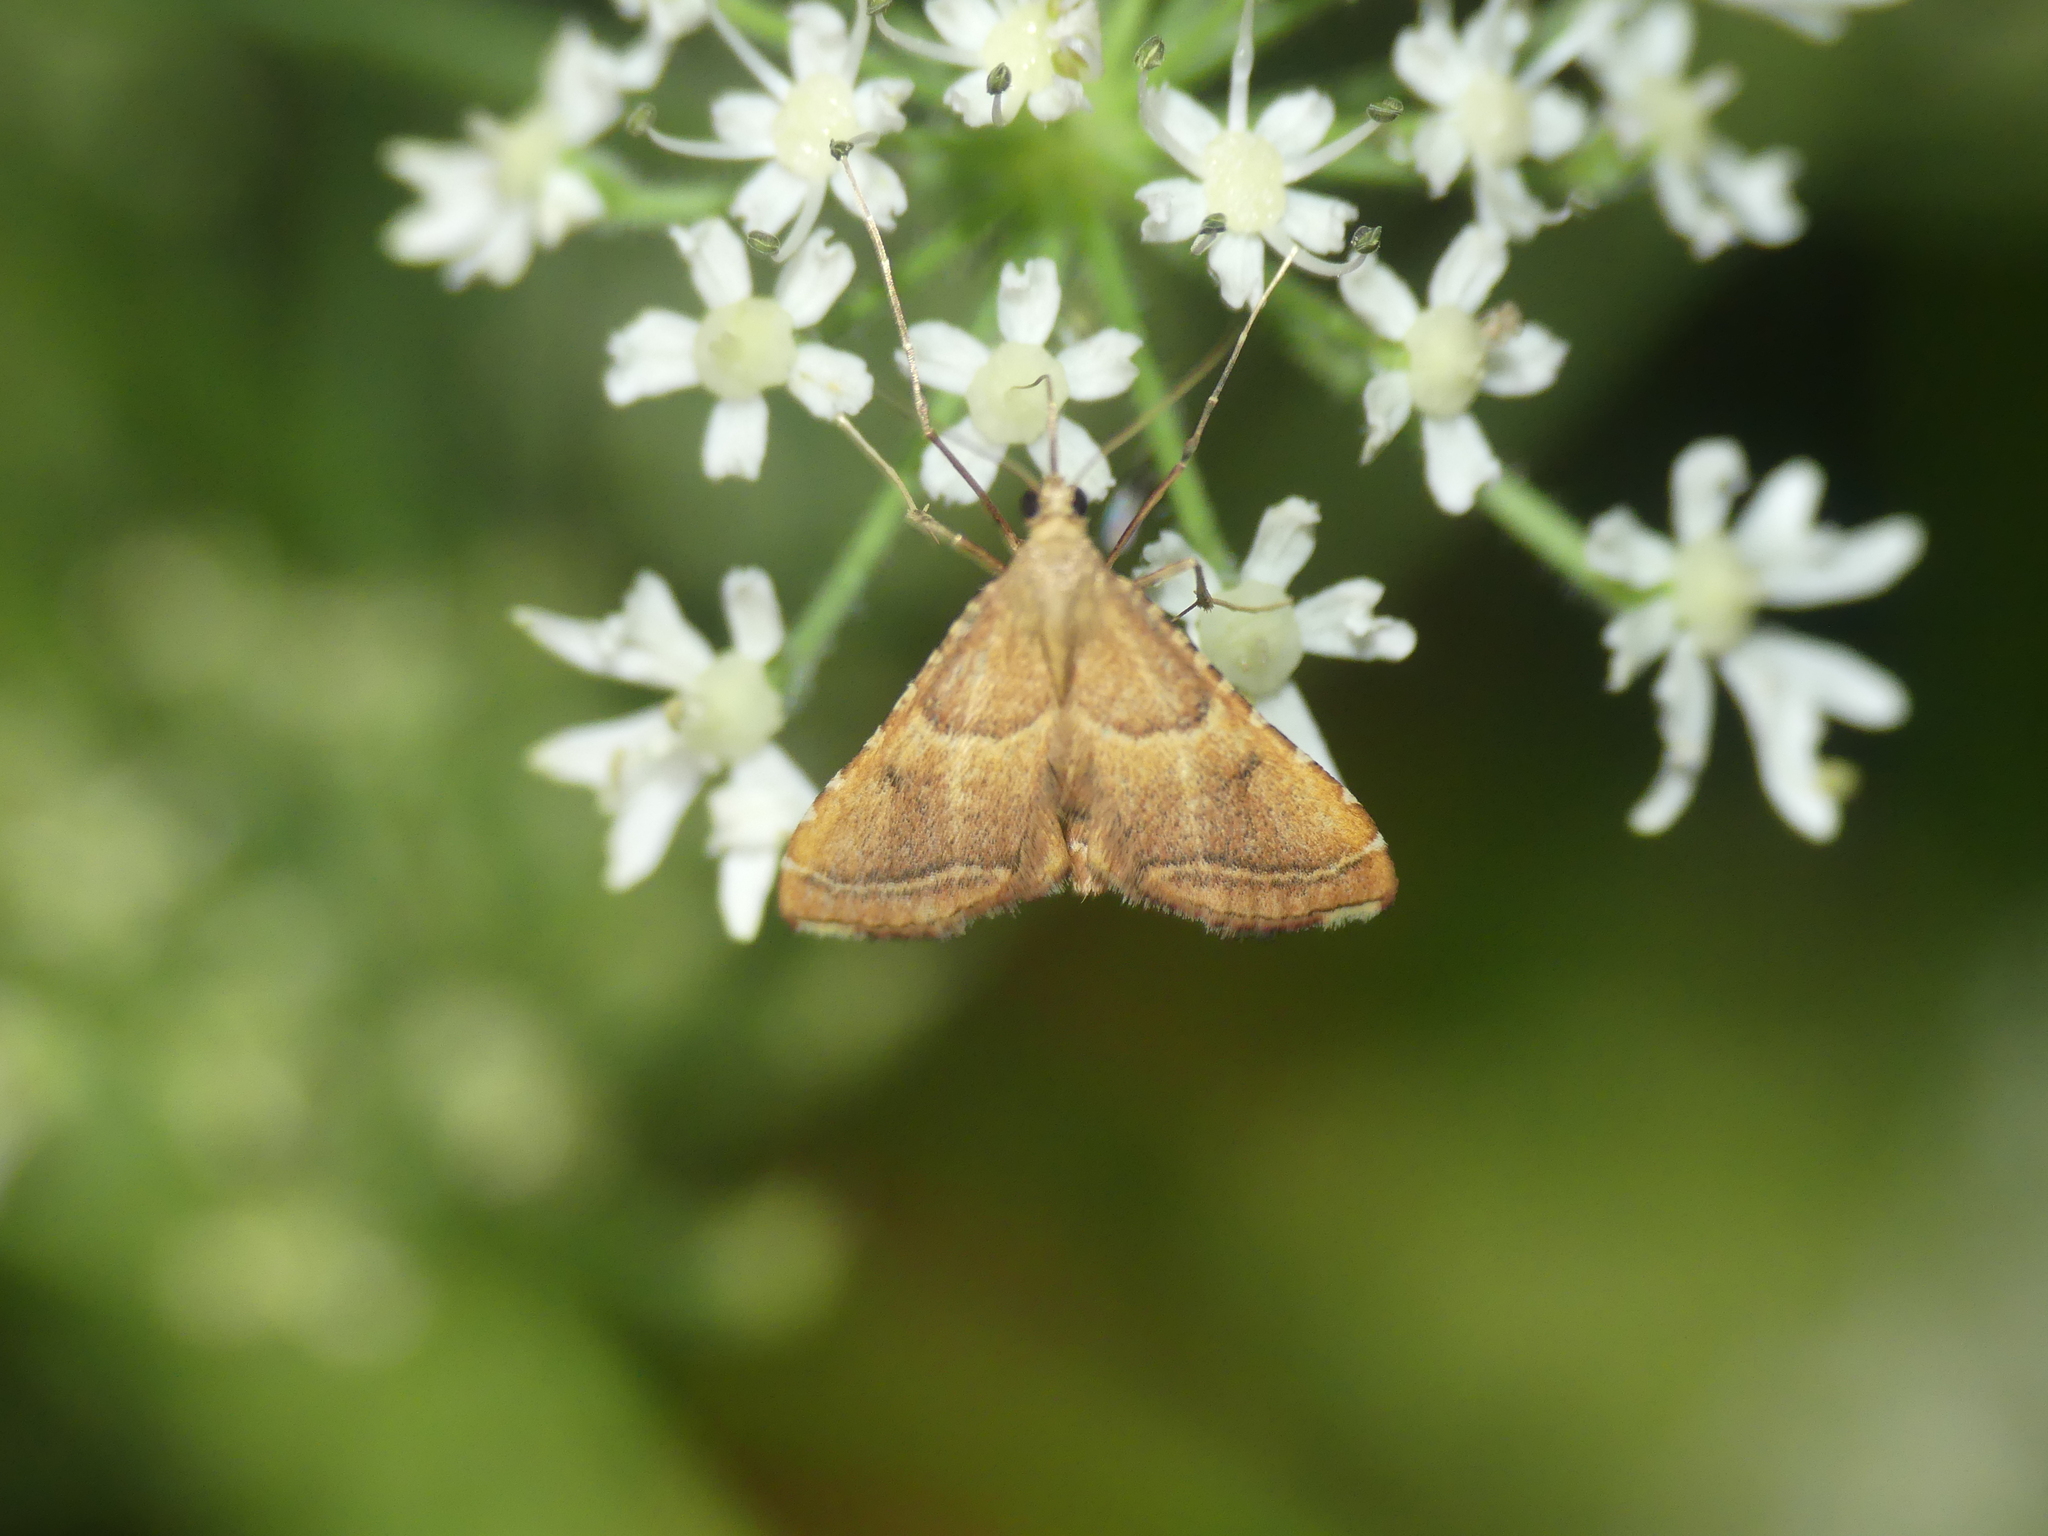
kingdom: Animalia
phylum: Arthropoda
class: Insecta
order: Lepidoptera
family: Pyralidae
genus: Endotricha
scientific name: Endotricha flammealis
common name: Rosy tabby
